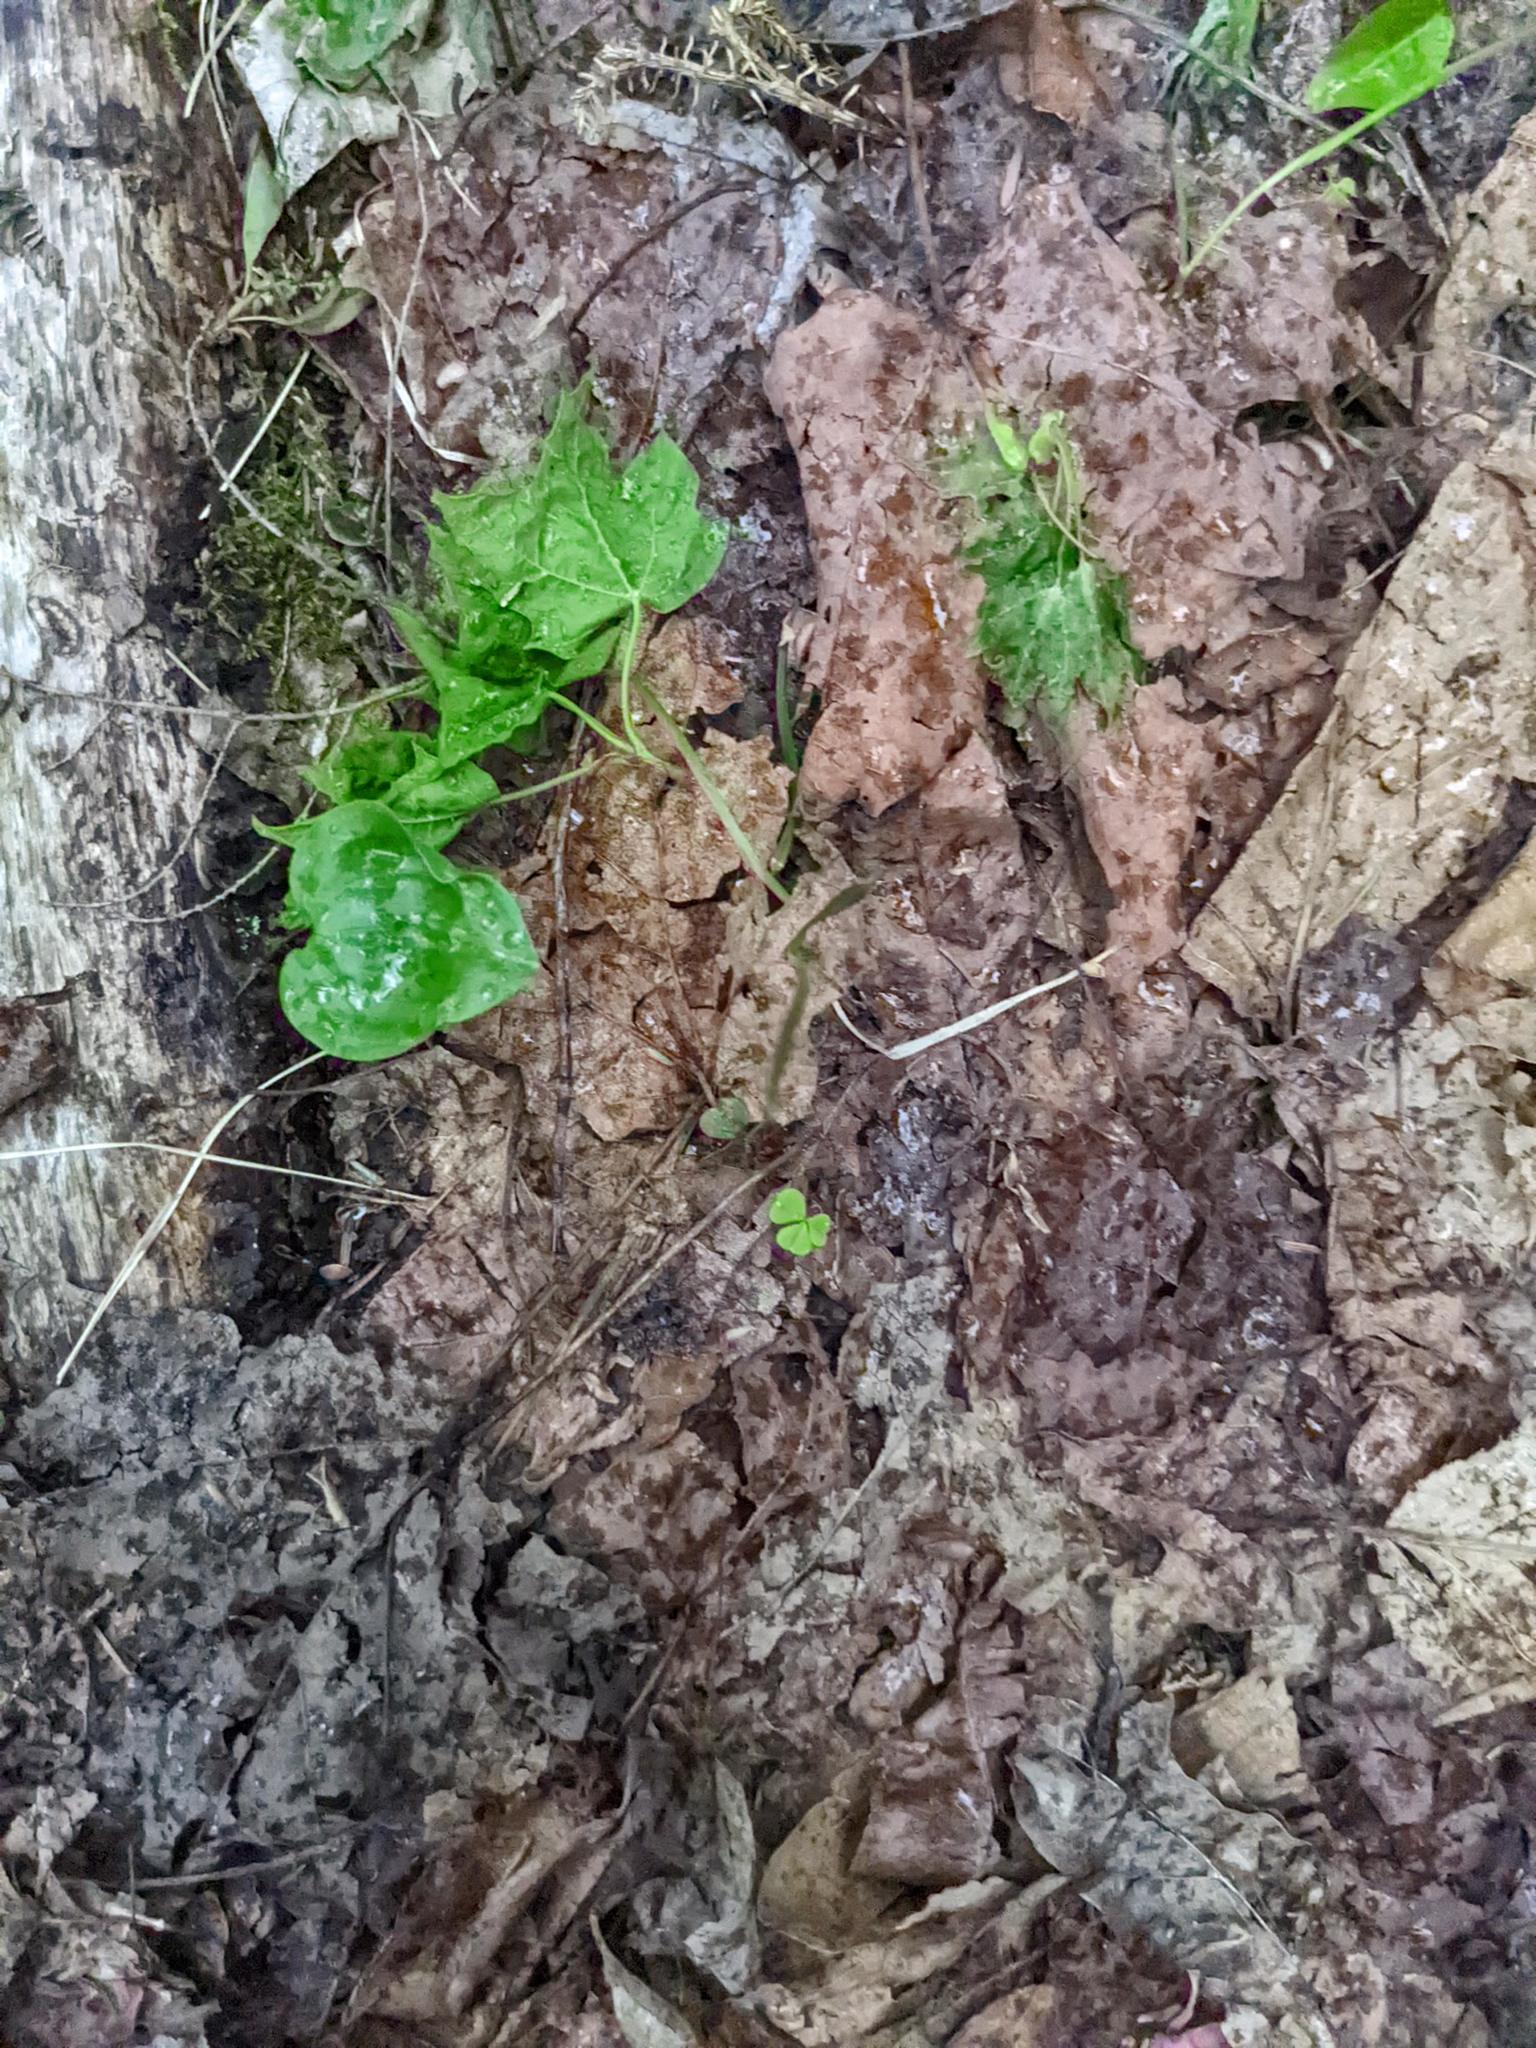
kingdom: Plantae
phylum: Tracheophyta
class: Liliopsida
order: Asparagales
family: Asparagaceae
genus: Maianthemum
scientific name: Maianthemum canadense
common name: False lily-of-the-valley
